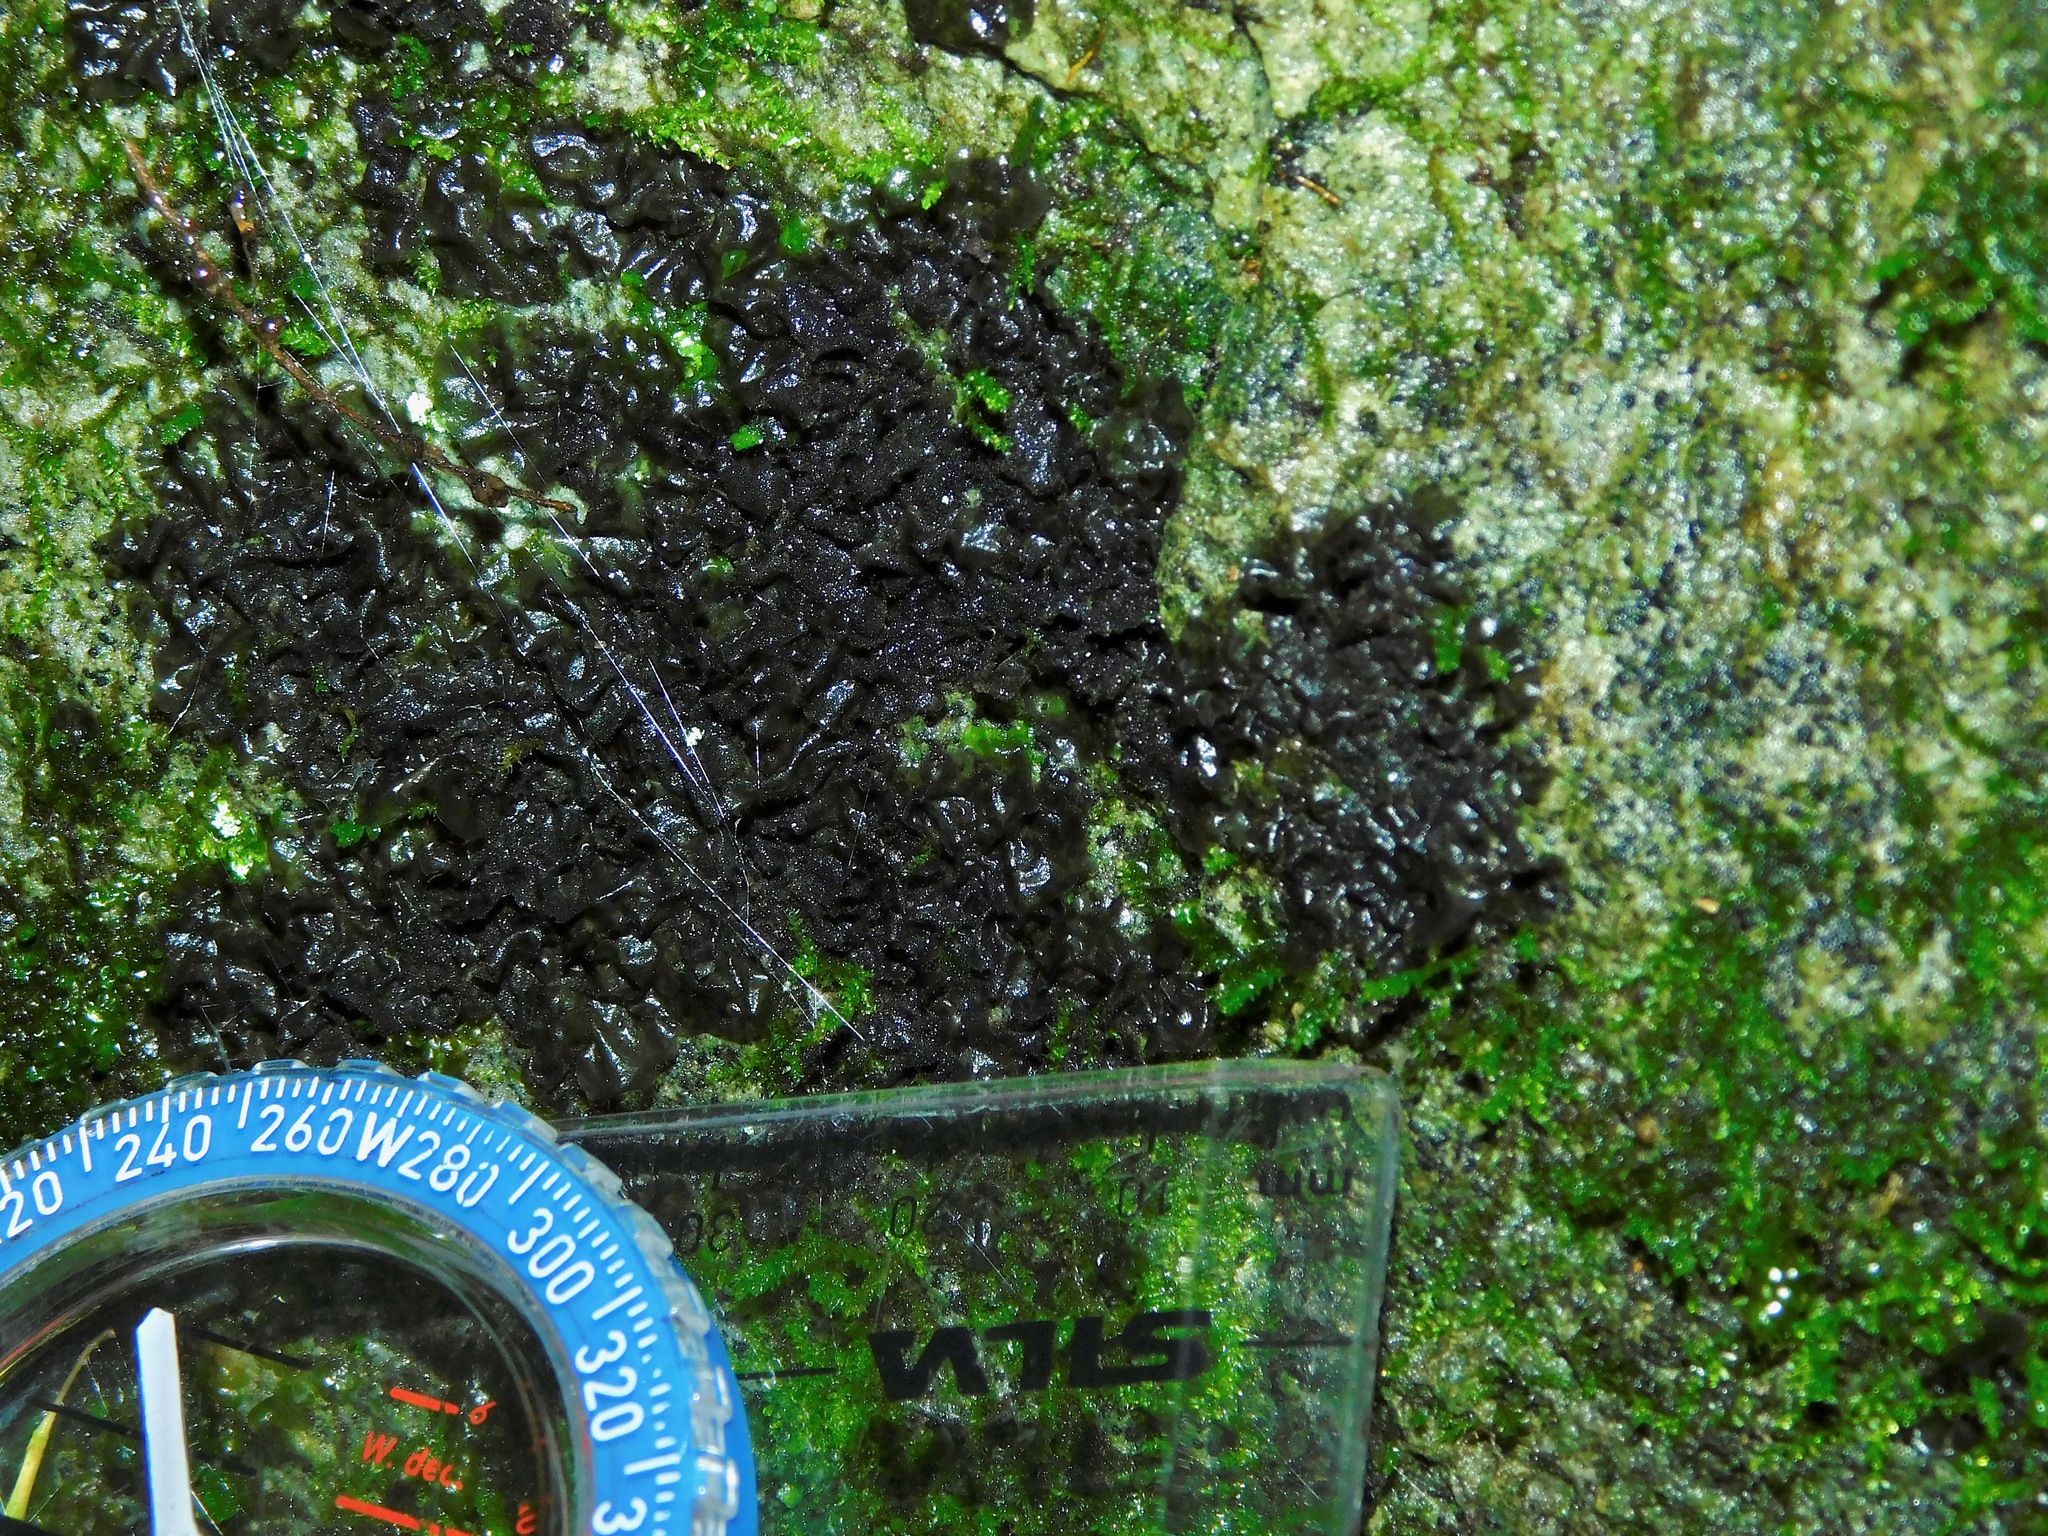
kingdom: Fungi
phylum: Ascomycota
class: Lecanoromycetes
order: Peltigerales
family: Collemataceae
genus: Leptogium
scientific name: Leptogium cyanescens
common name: Blue jellyskin
